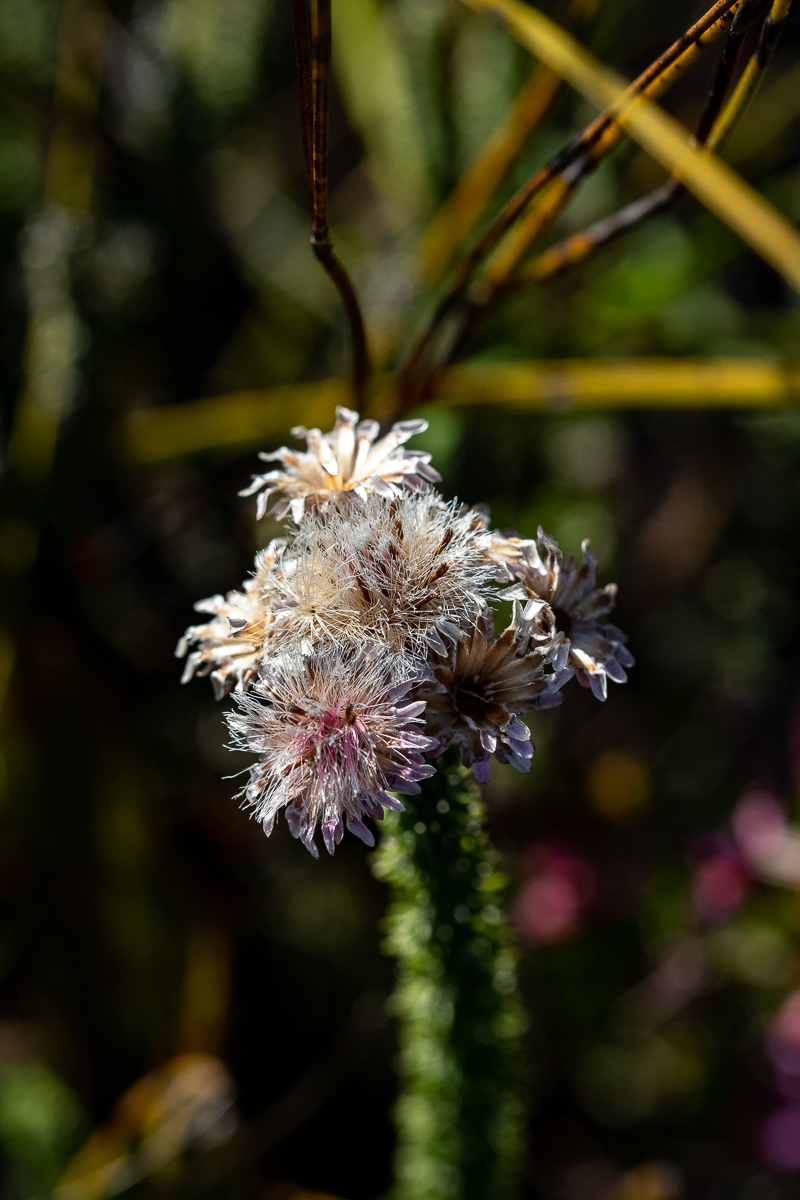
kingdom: Plantae
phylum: Tracheophyta
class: Magnoliopsida
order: Asterales
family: Asteraceae
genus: Lachnospermum
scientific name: Lachnospermum umbellatum
